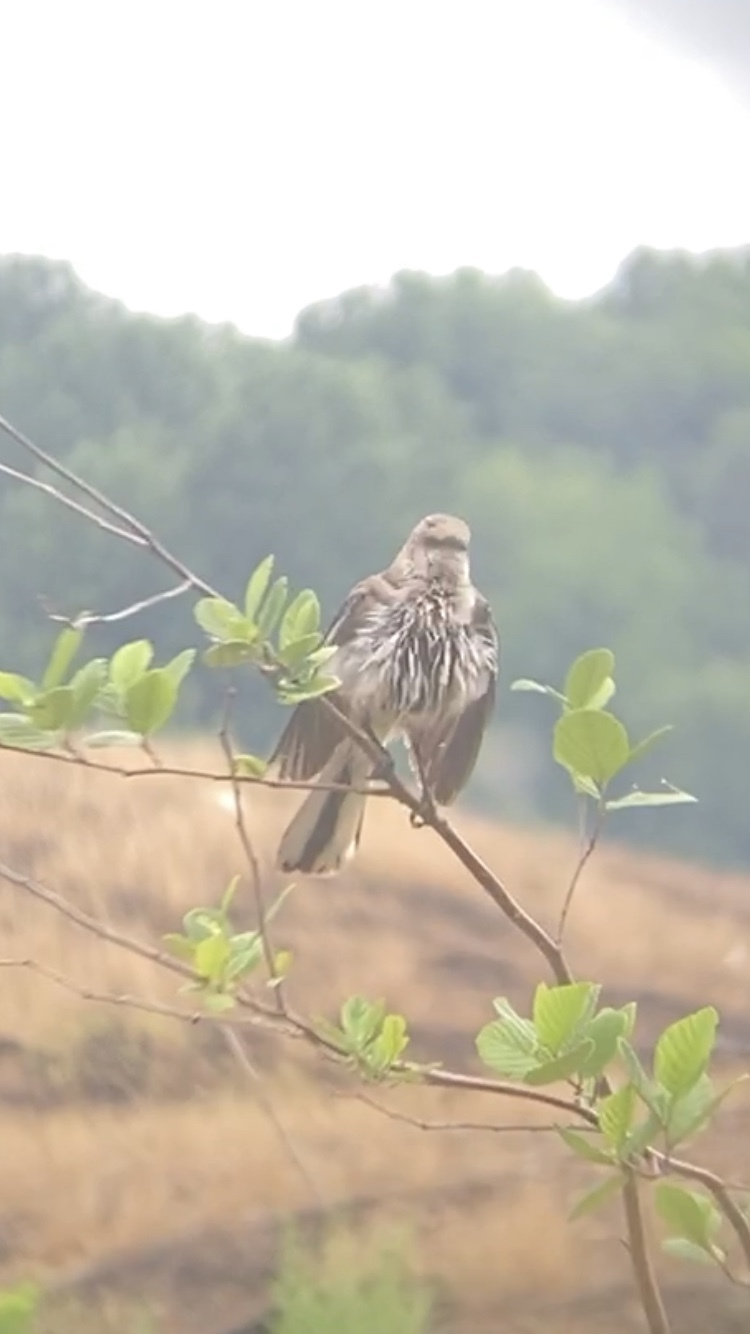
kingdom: Animalia
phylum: Chordata
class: Aves
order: Passeriformes
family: Mimidae
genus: Mimus
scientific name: Mimus polyglottos
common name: Northern mockingbird
